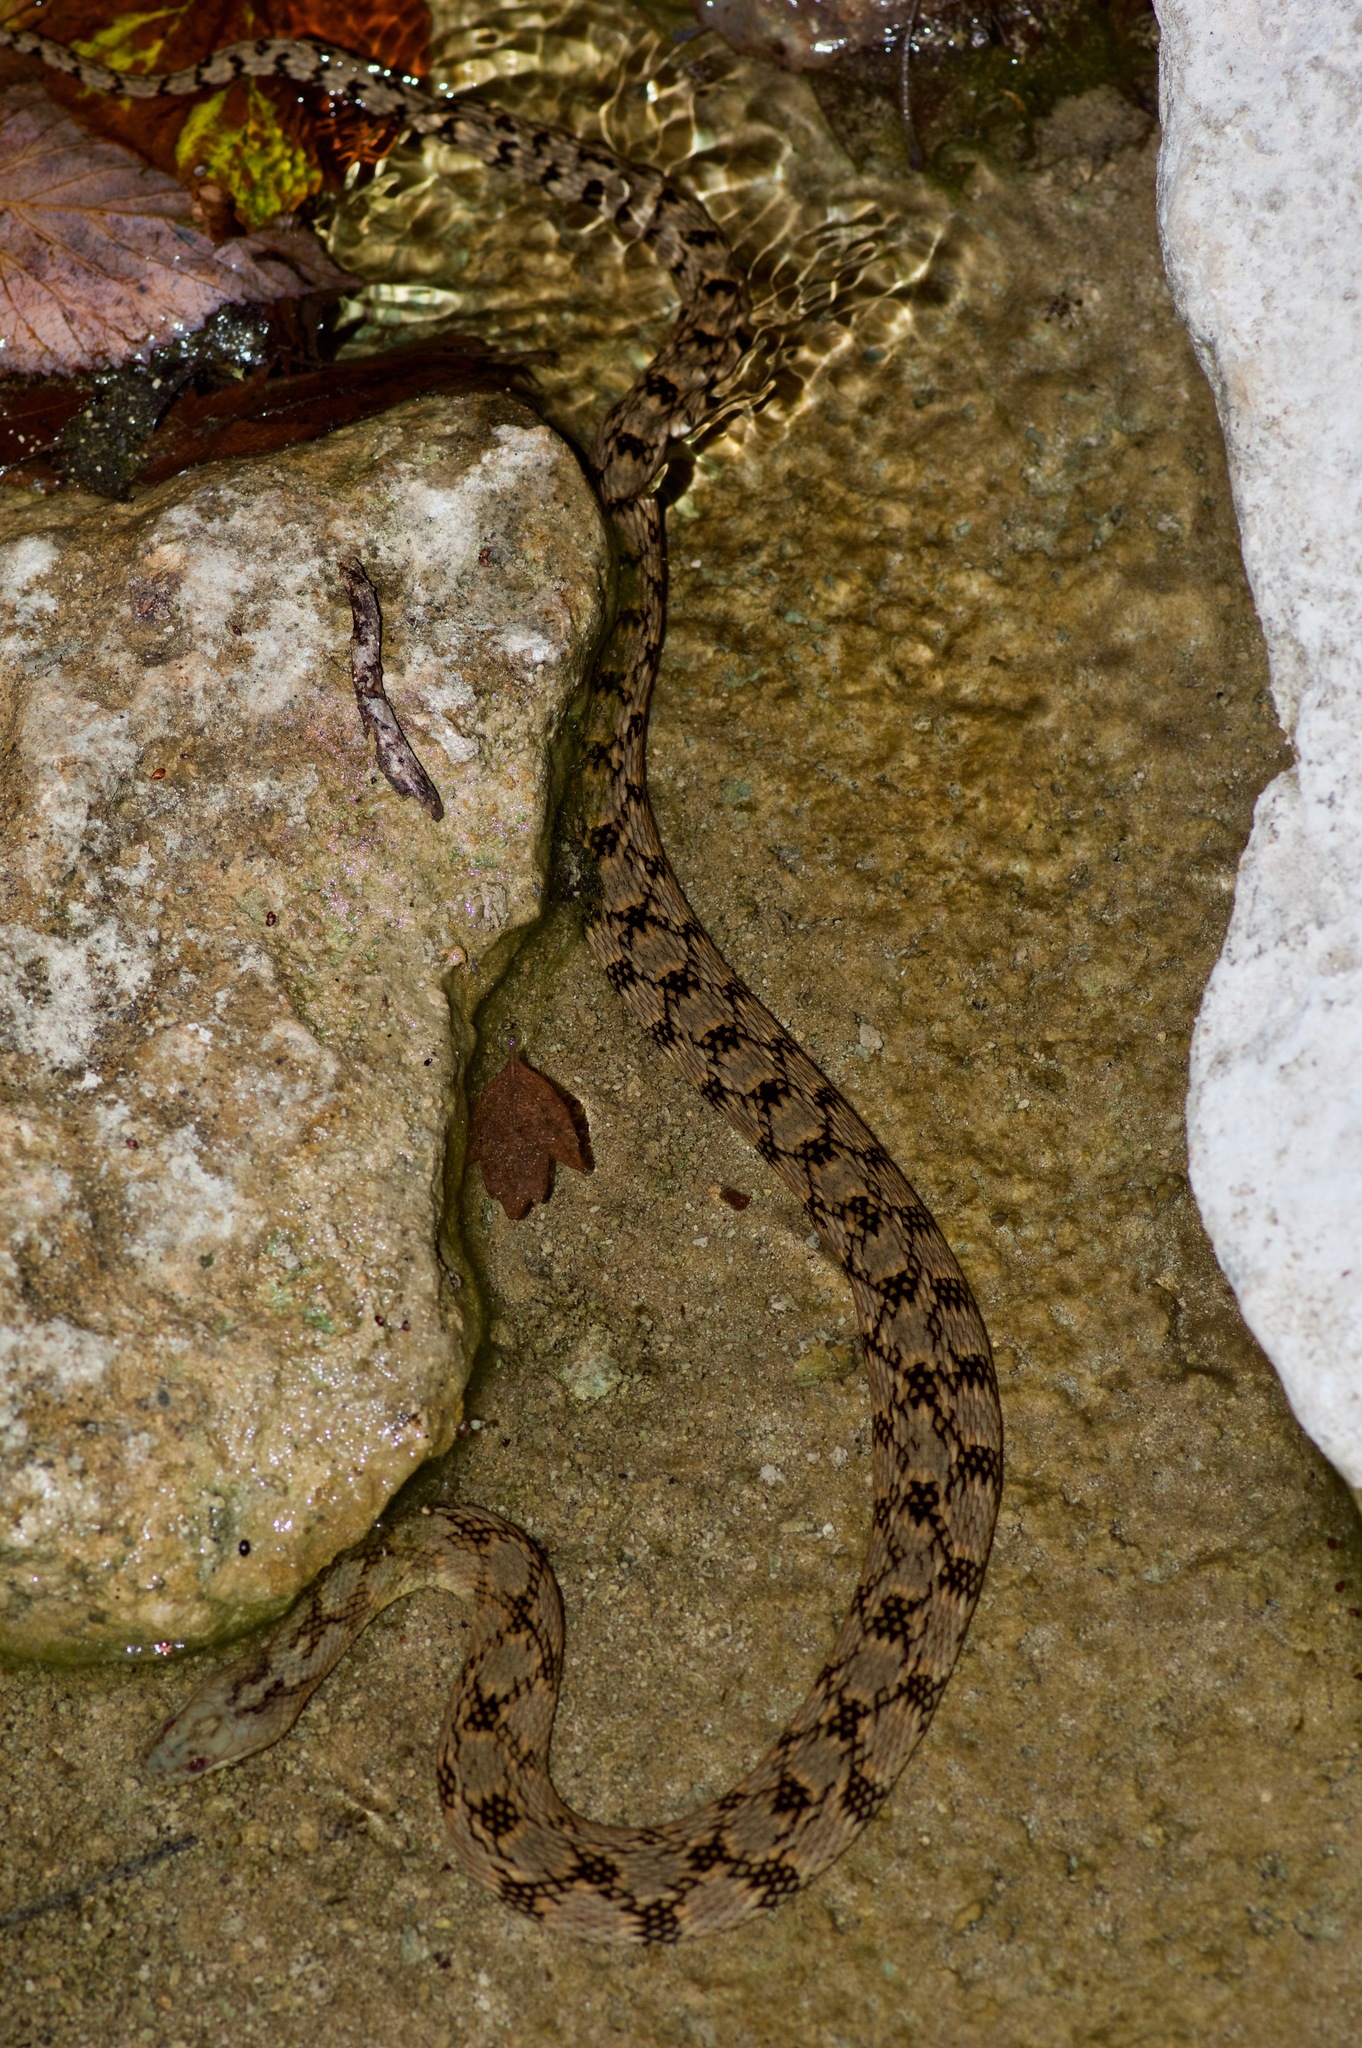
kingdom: Animalia
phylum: Chordata
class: Squamata
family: Colubridae
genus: Nerodia
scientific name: Nerodia rhombifer
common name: Diamondback water snake
